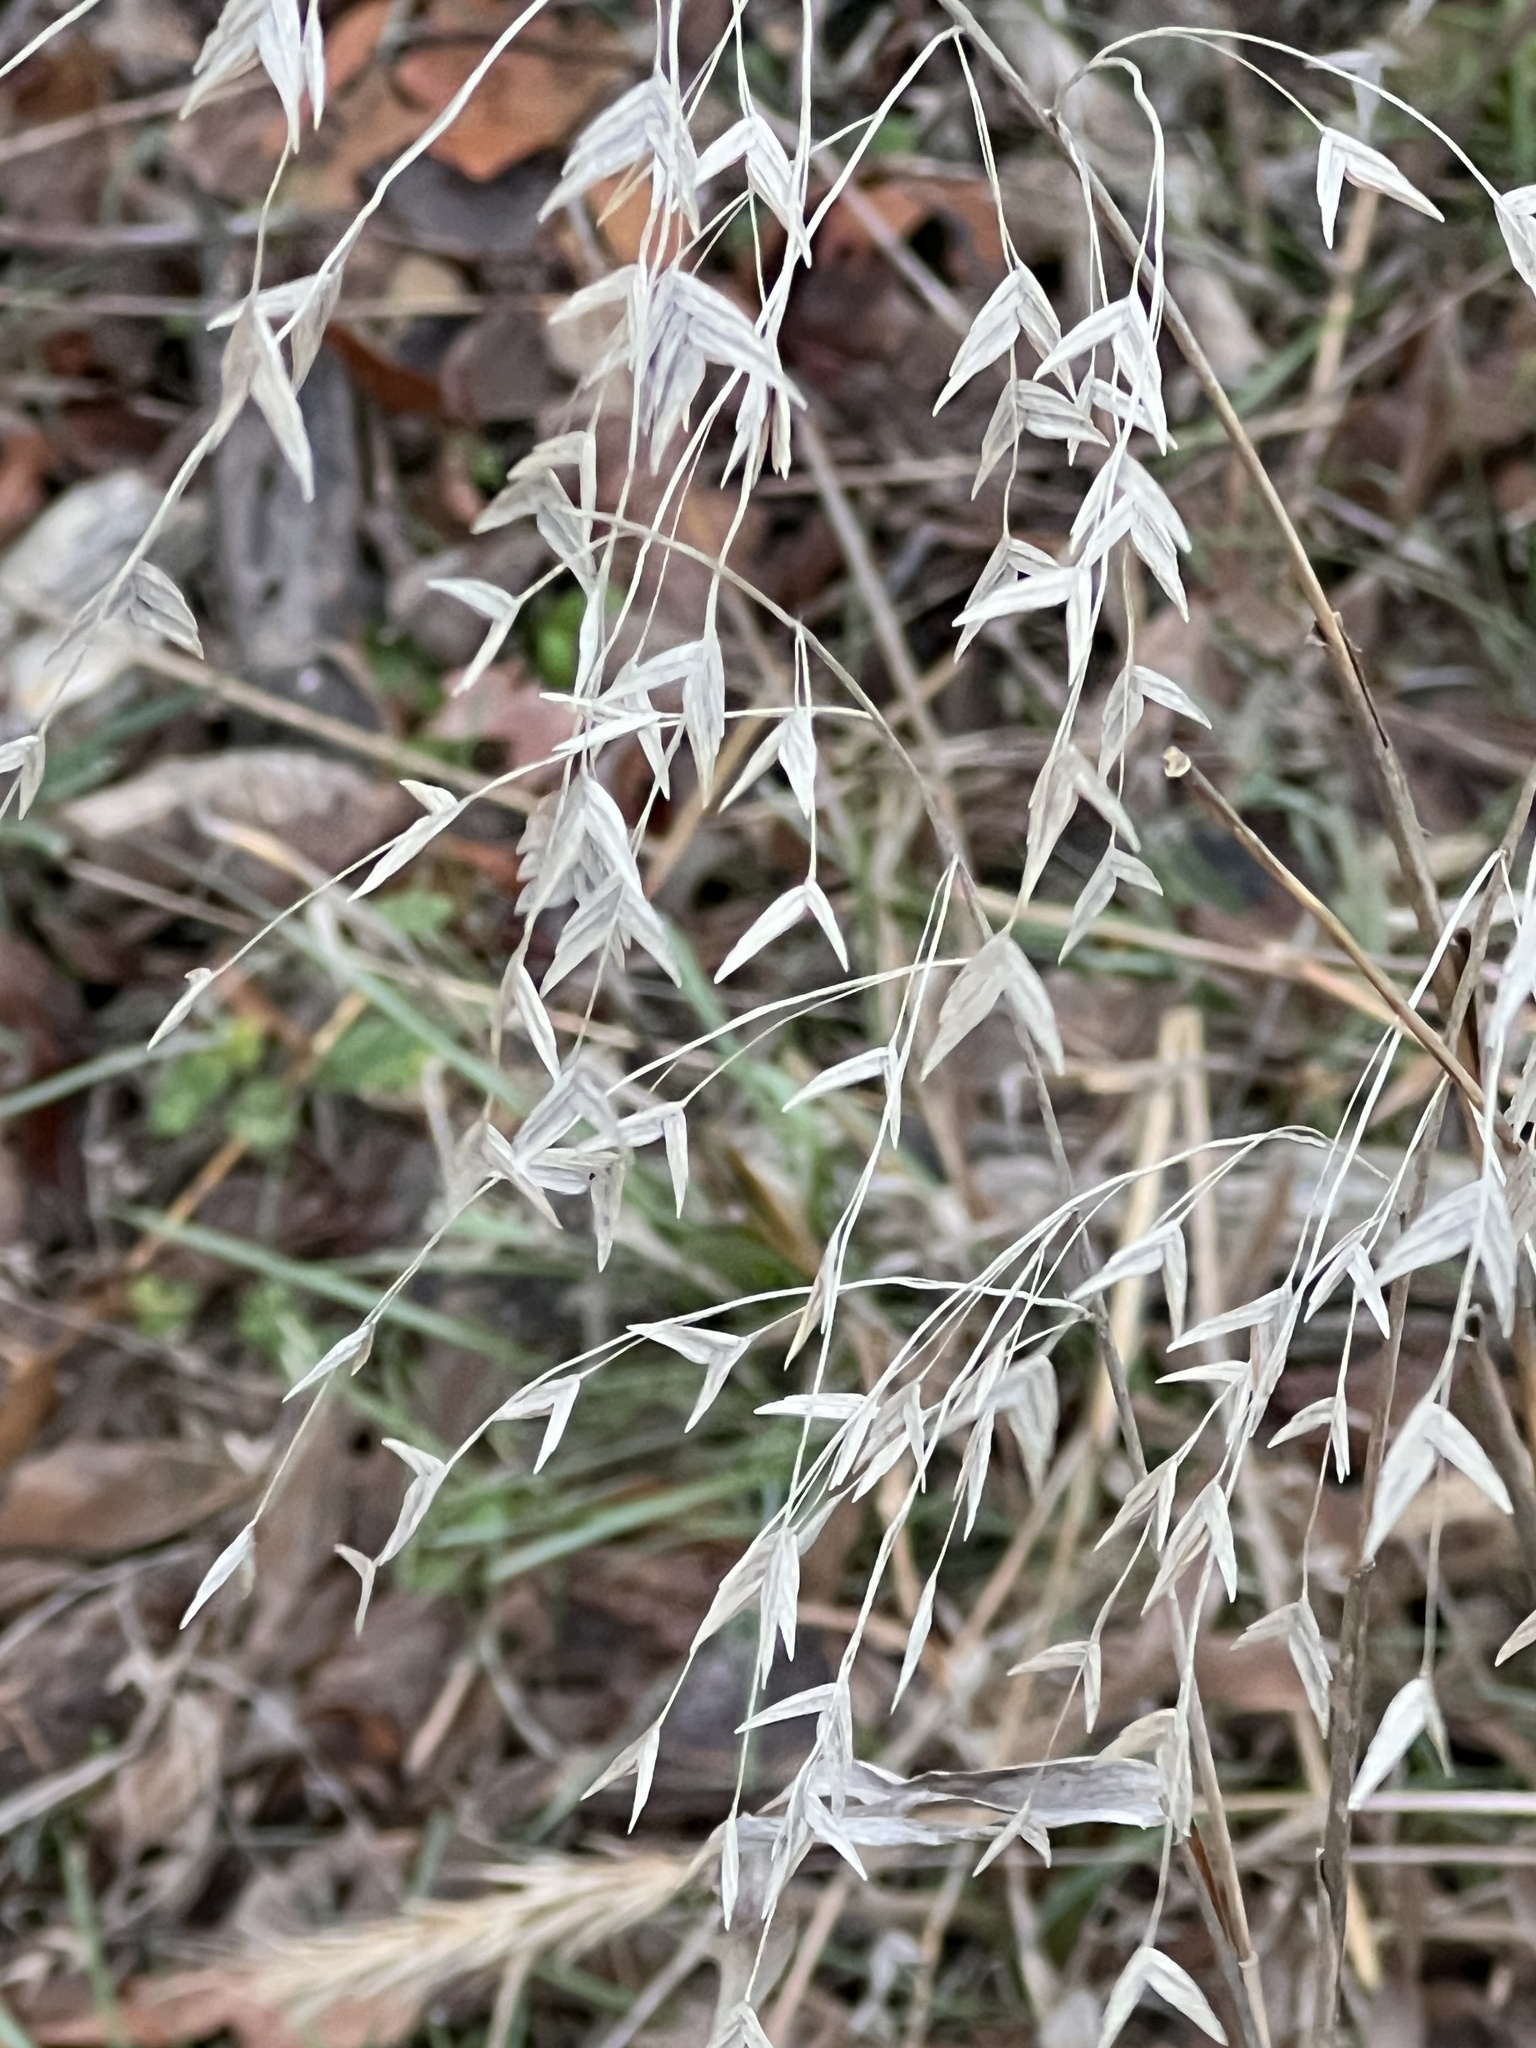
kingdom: Plantae
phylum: Tracheophyta
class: Liliopsida
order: Poales
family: Poaceae
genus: Chasmanthium
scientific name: Chasmanthium latifolium
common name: Broad-leaved chasmanthium
